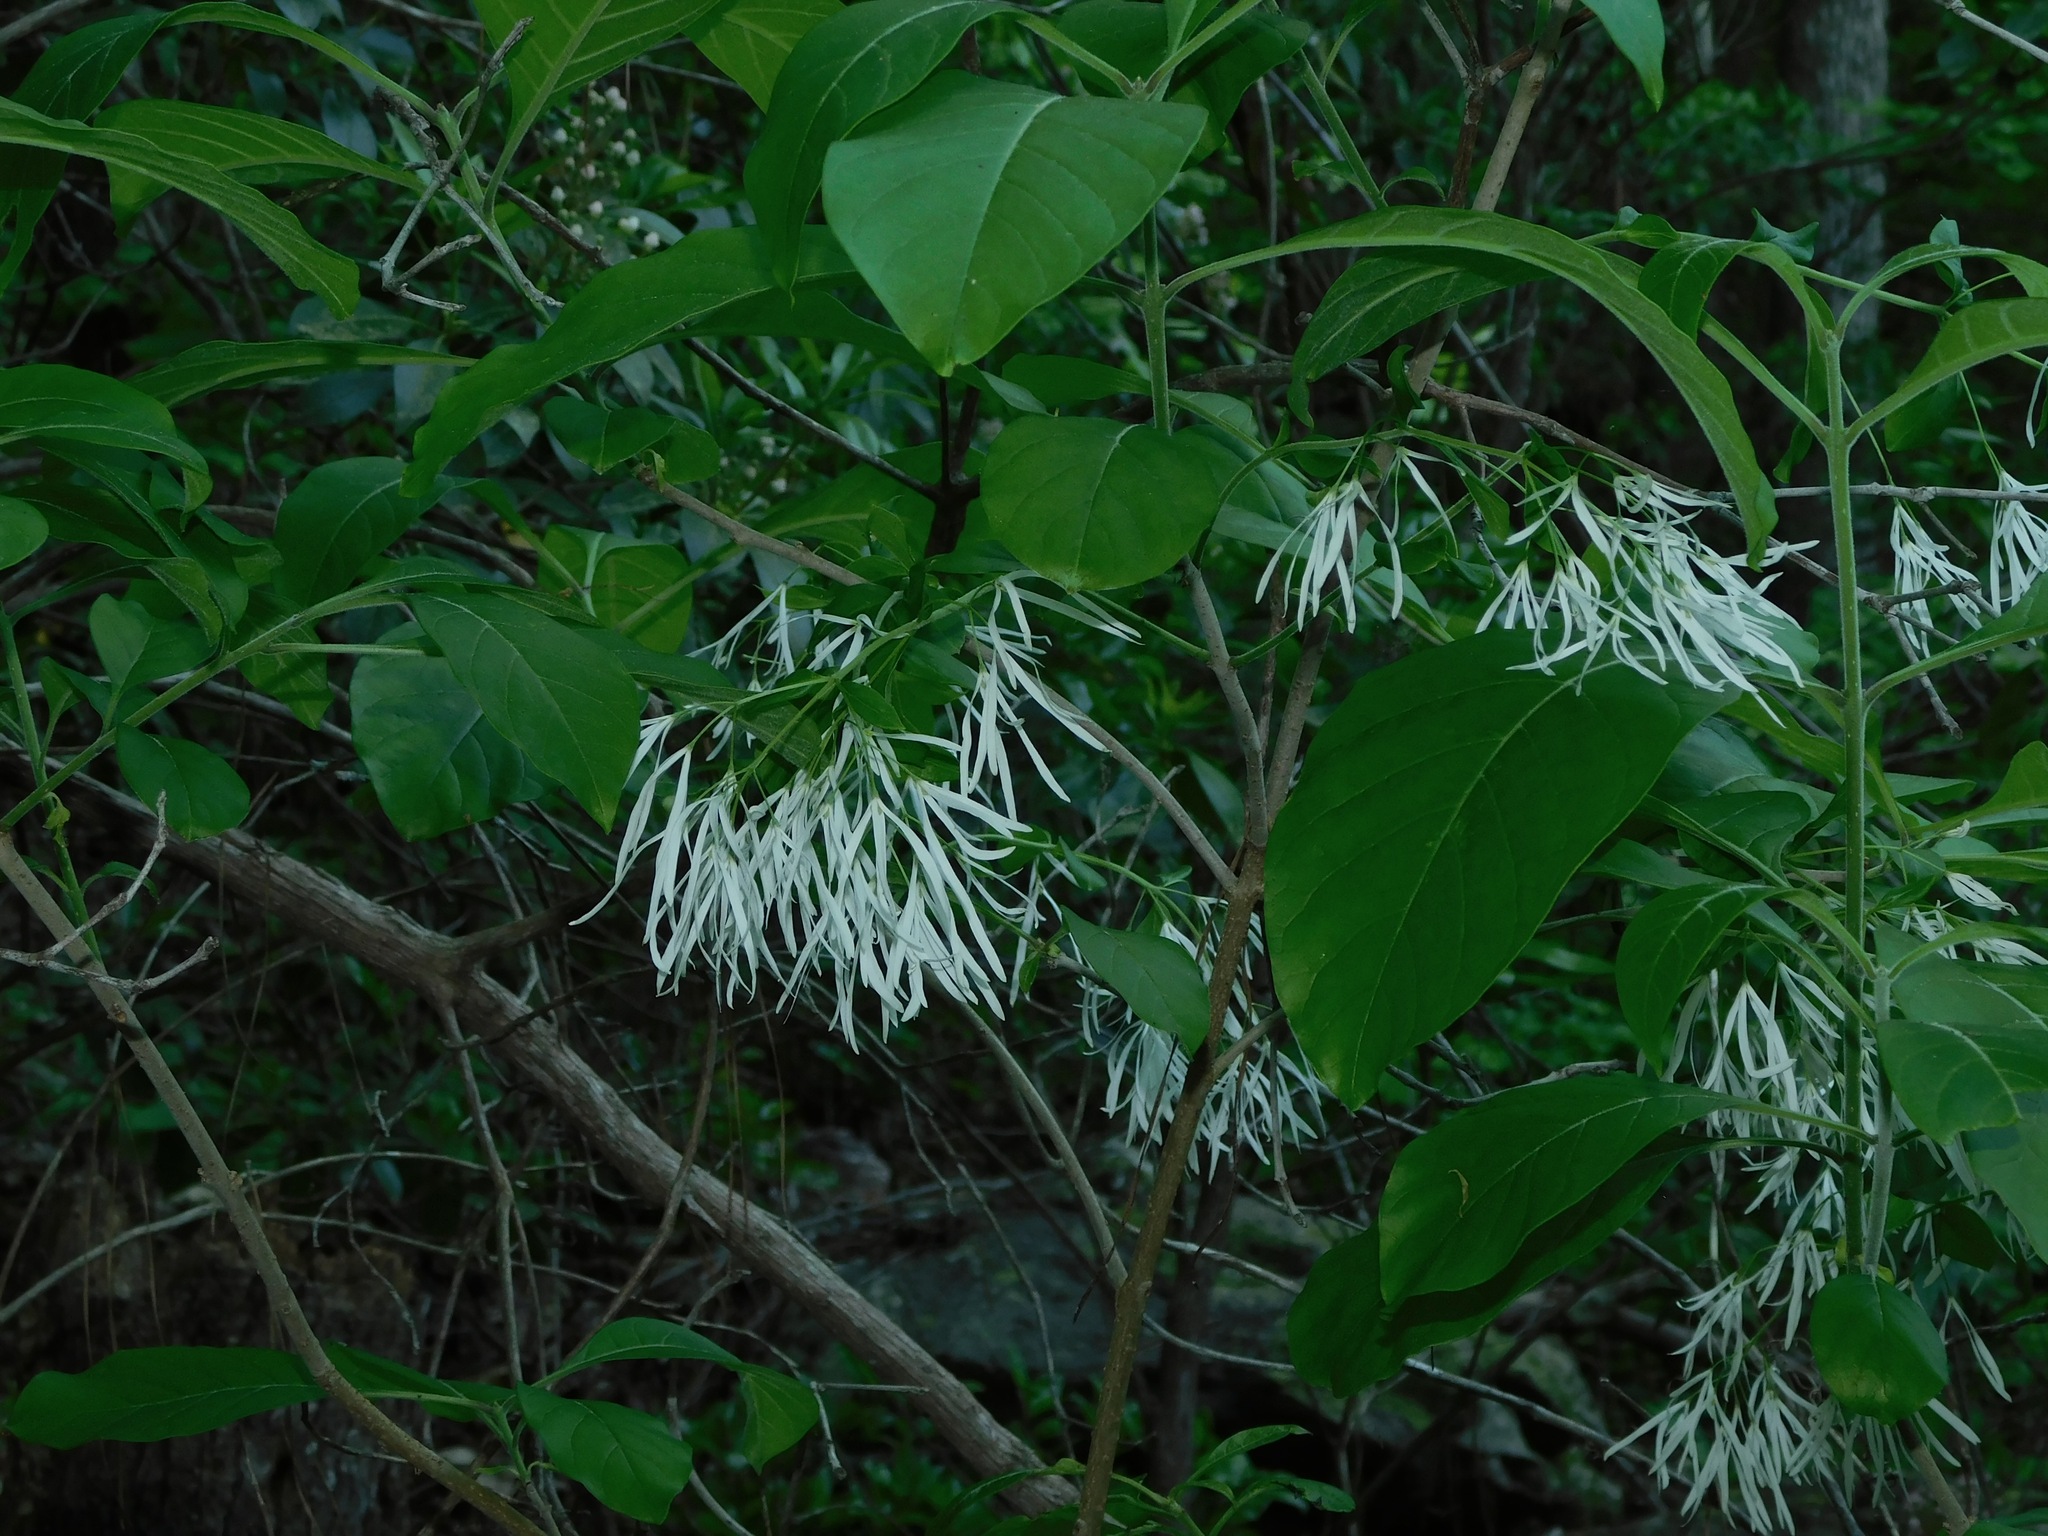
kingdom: Plantae
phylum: Tracheophyta
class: Magnoliopsida
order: Lamiales
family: Oleaceae
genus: Chionanthus
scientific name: Chionanthus virginicus
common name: American fringetree
